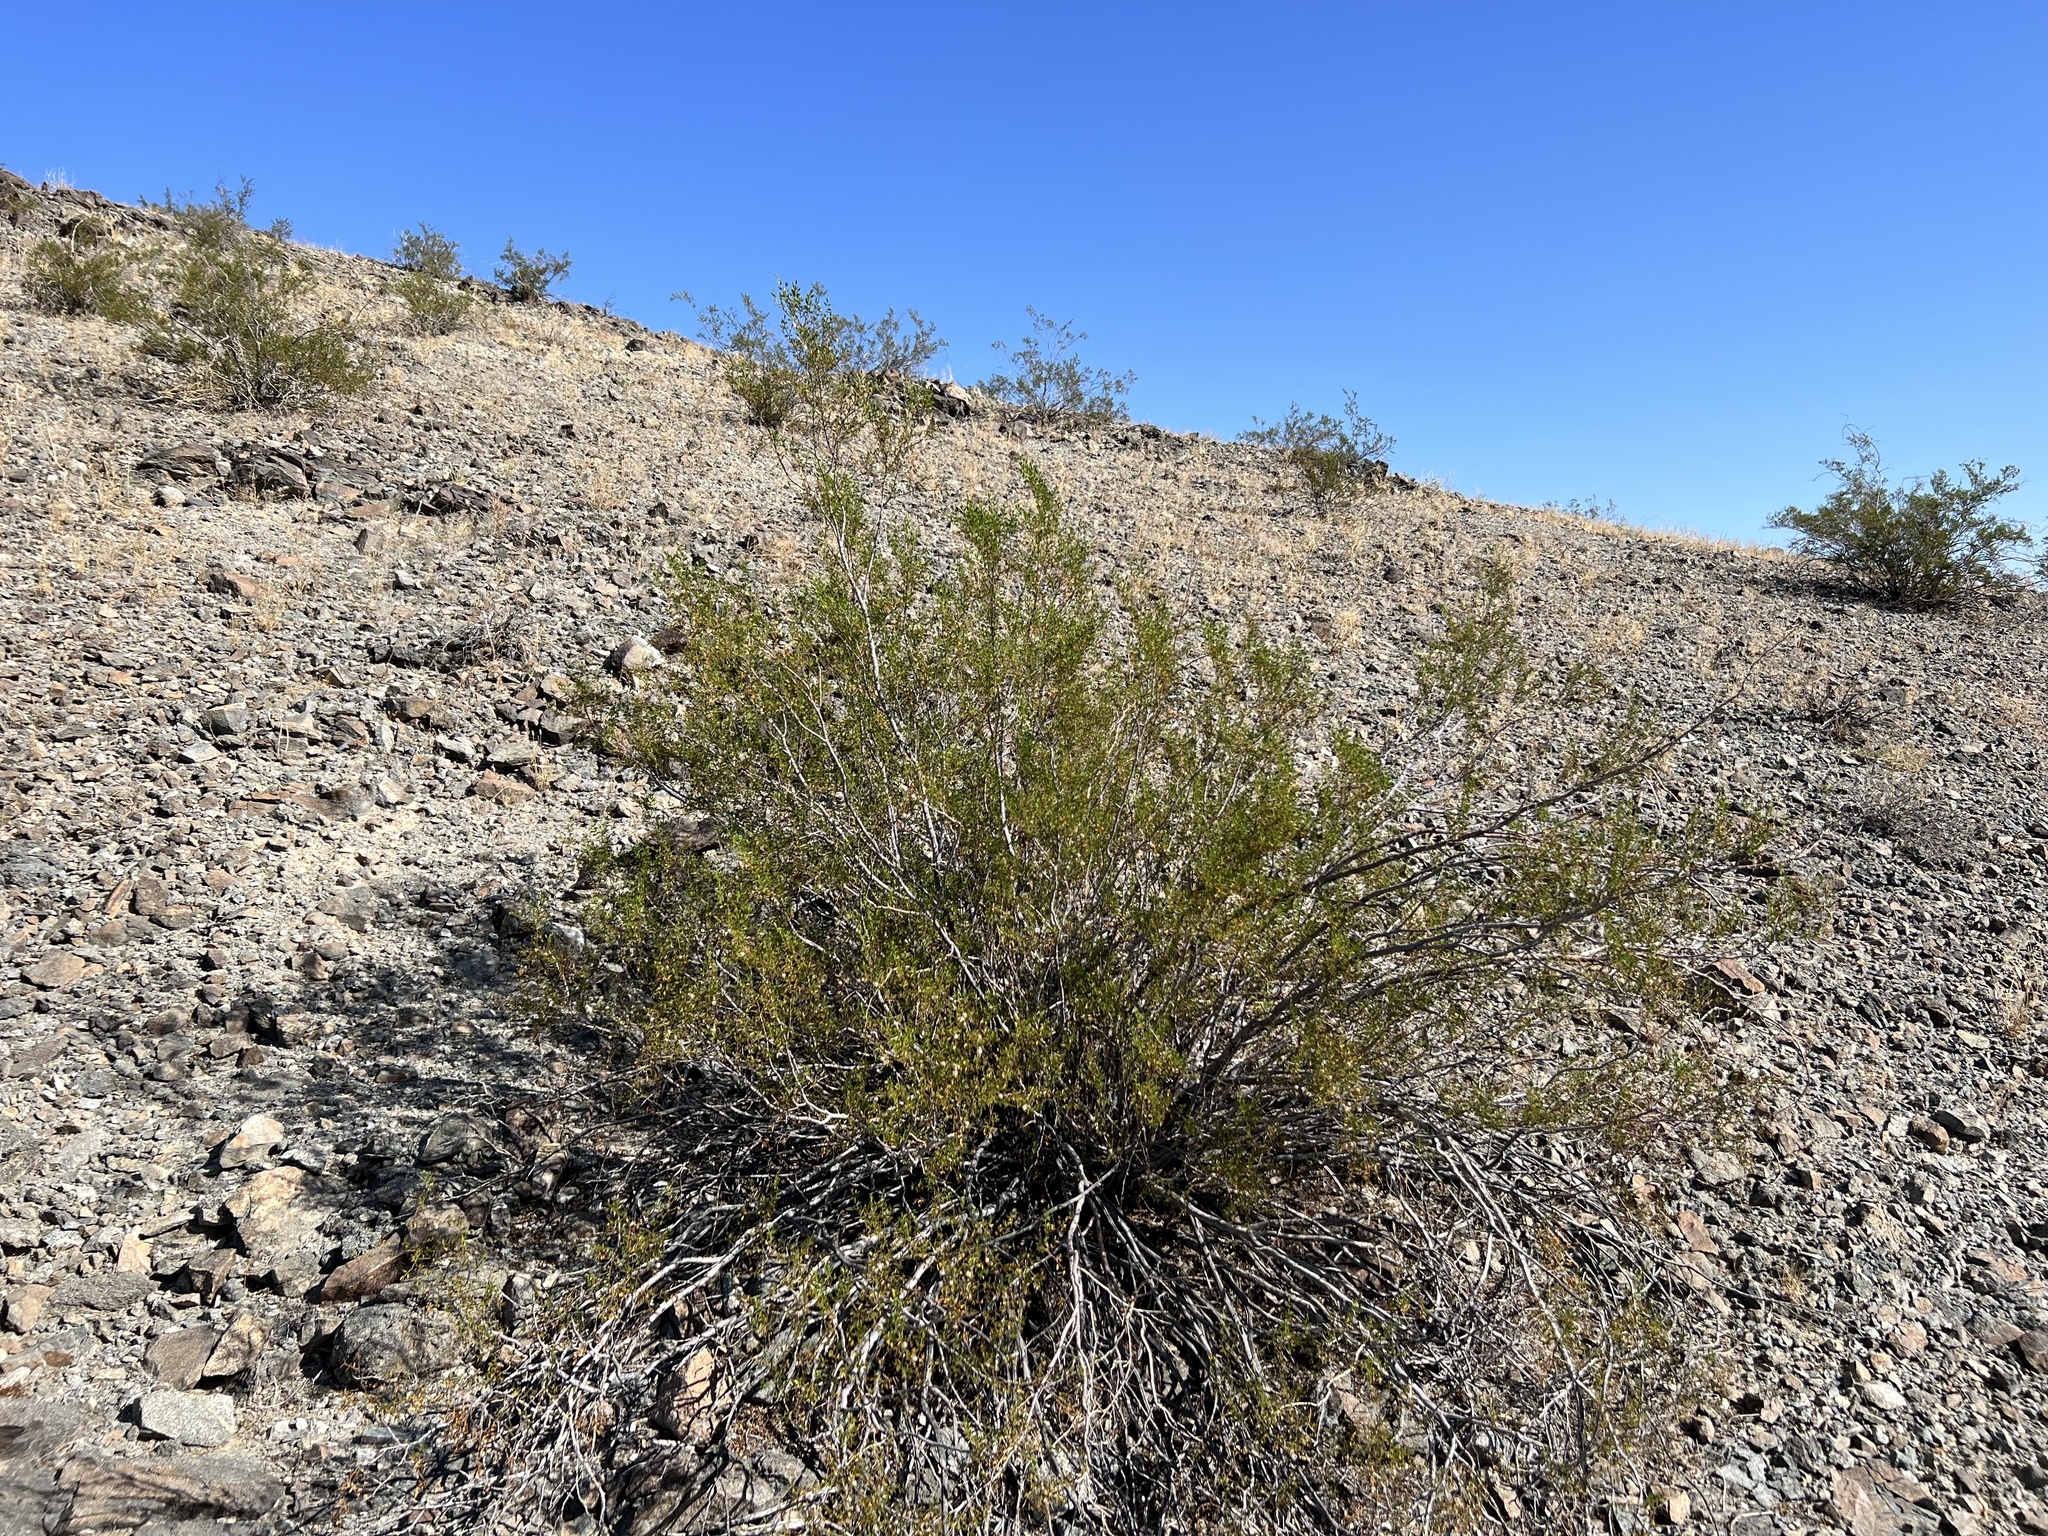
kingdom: Plantae
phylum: Tracheophyta
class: Magnoliopsida
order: Zygophyllales
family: Zygophyllaceae
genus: Larrea
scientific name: Larrea tridentata
